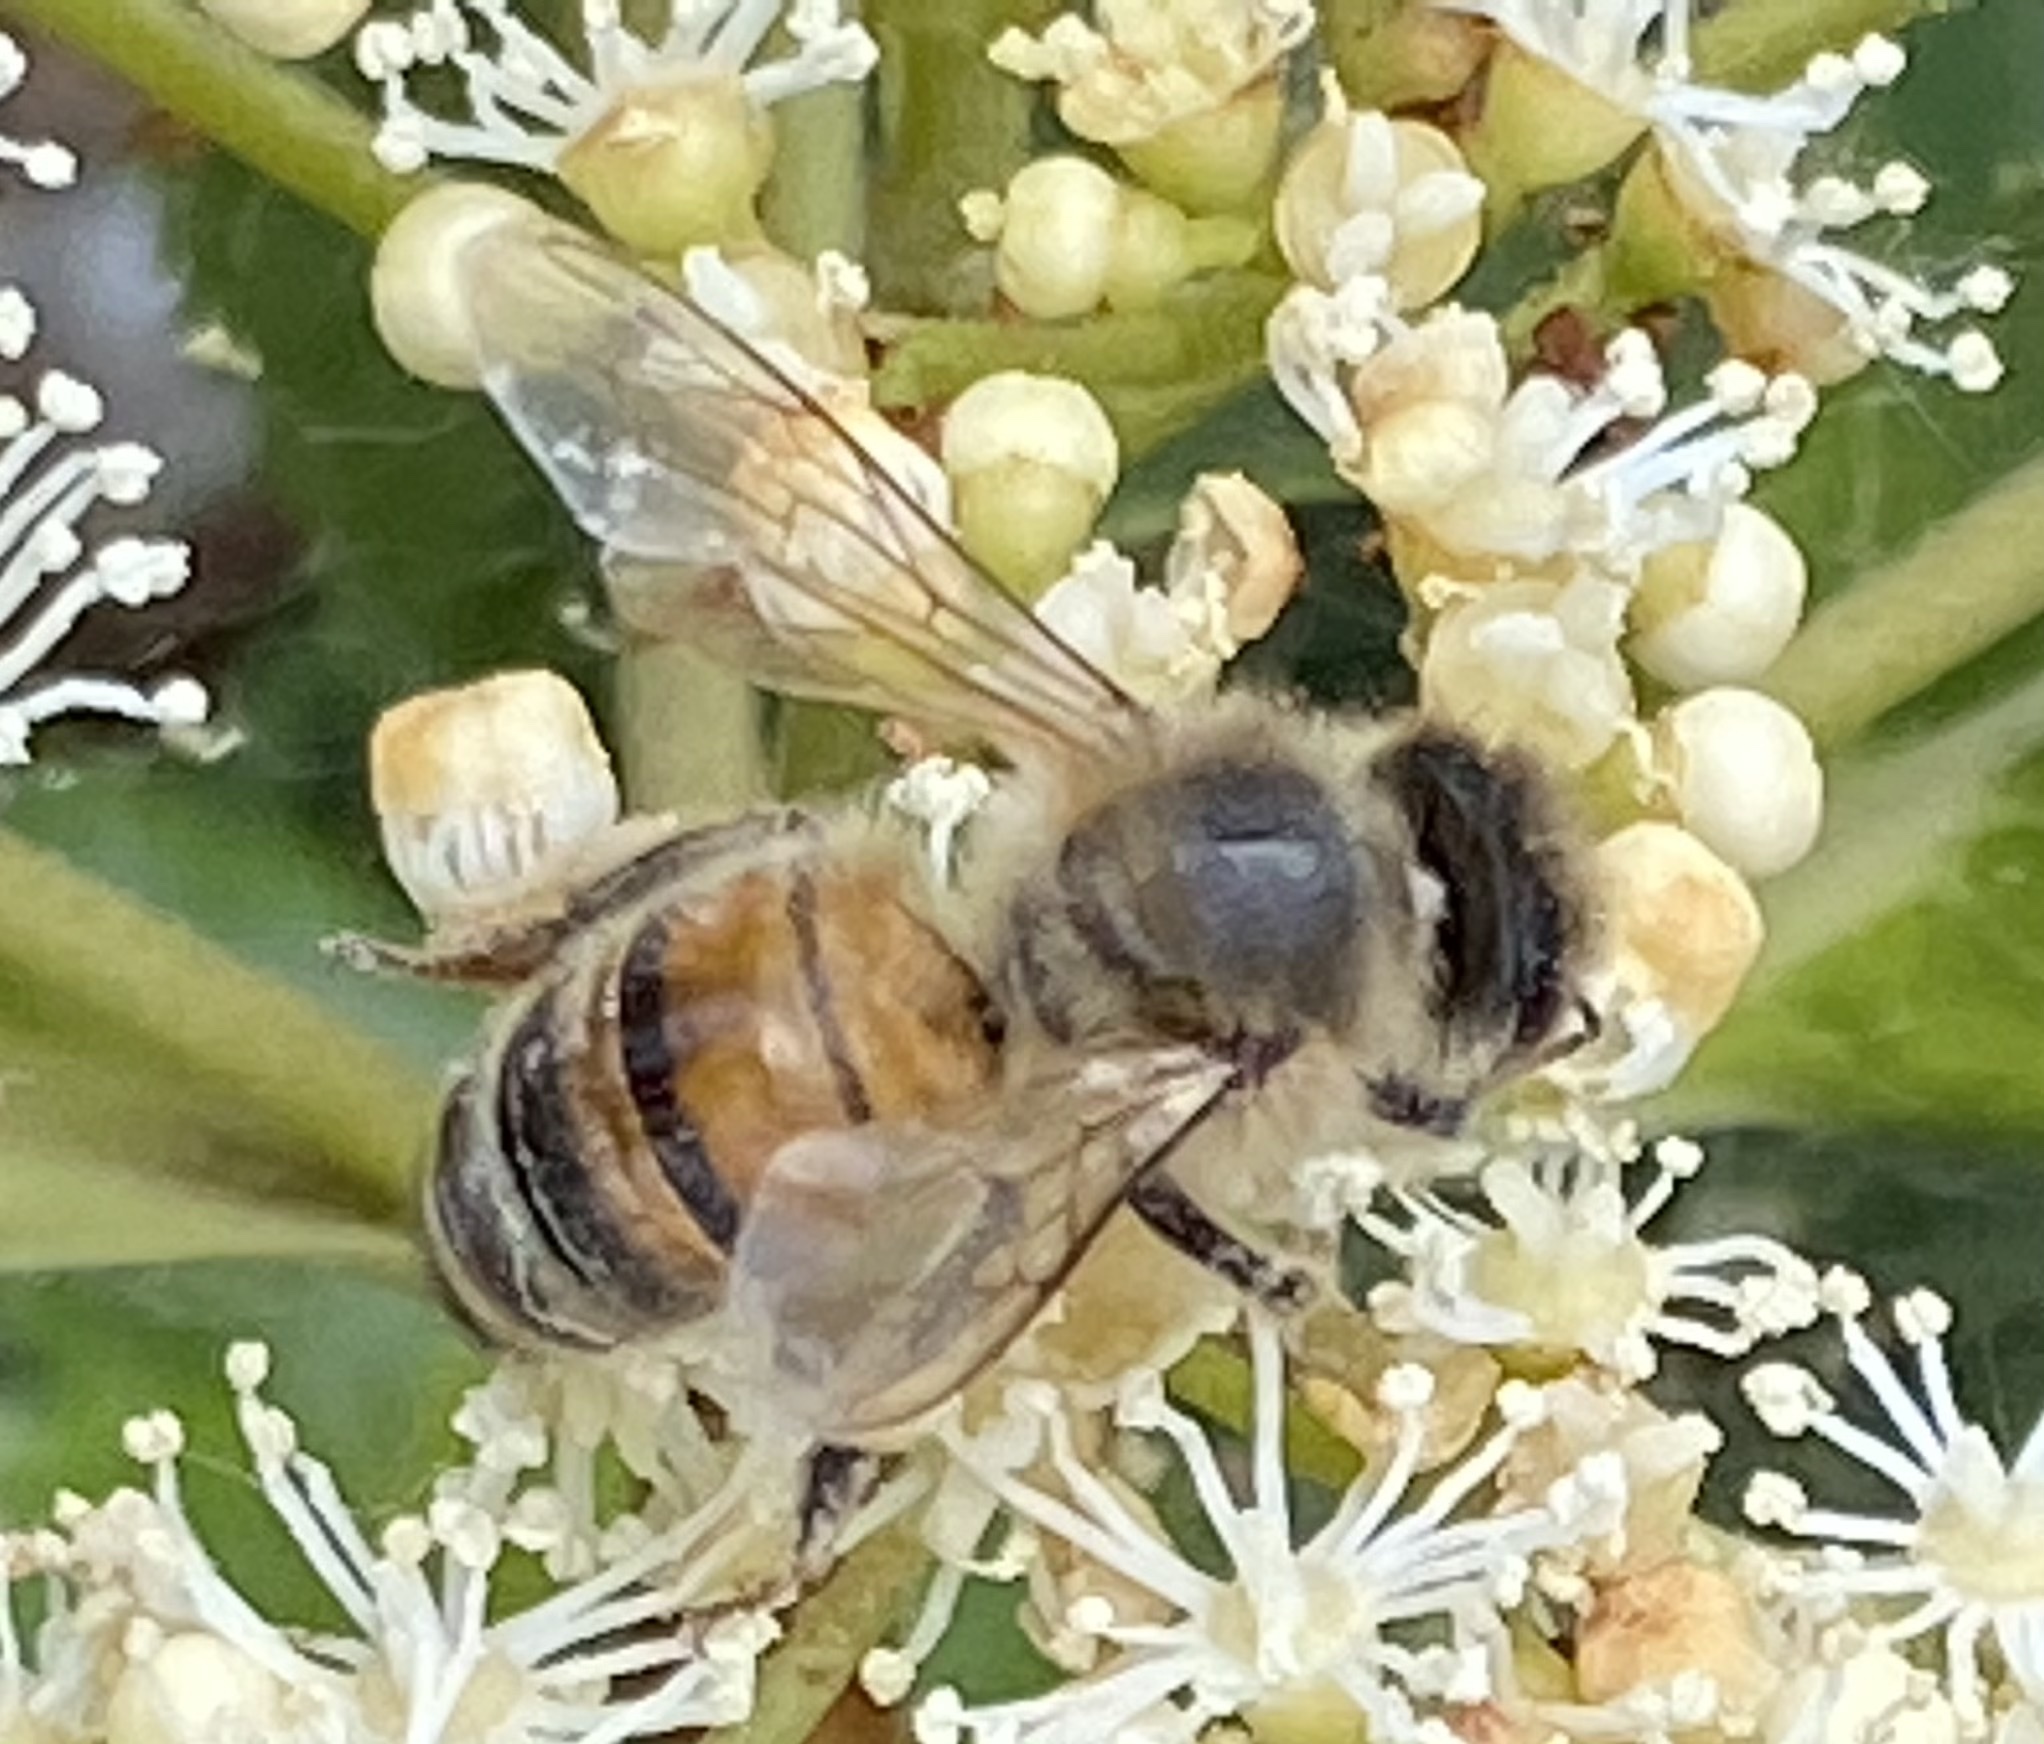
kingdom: Animalia
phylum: Arthropoda
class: Insecta
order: Hymenoptera
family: Apidae
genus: Apis
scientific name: Apis mellifera
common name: Honey bee
